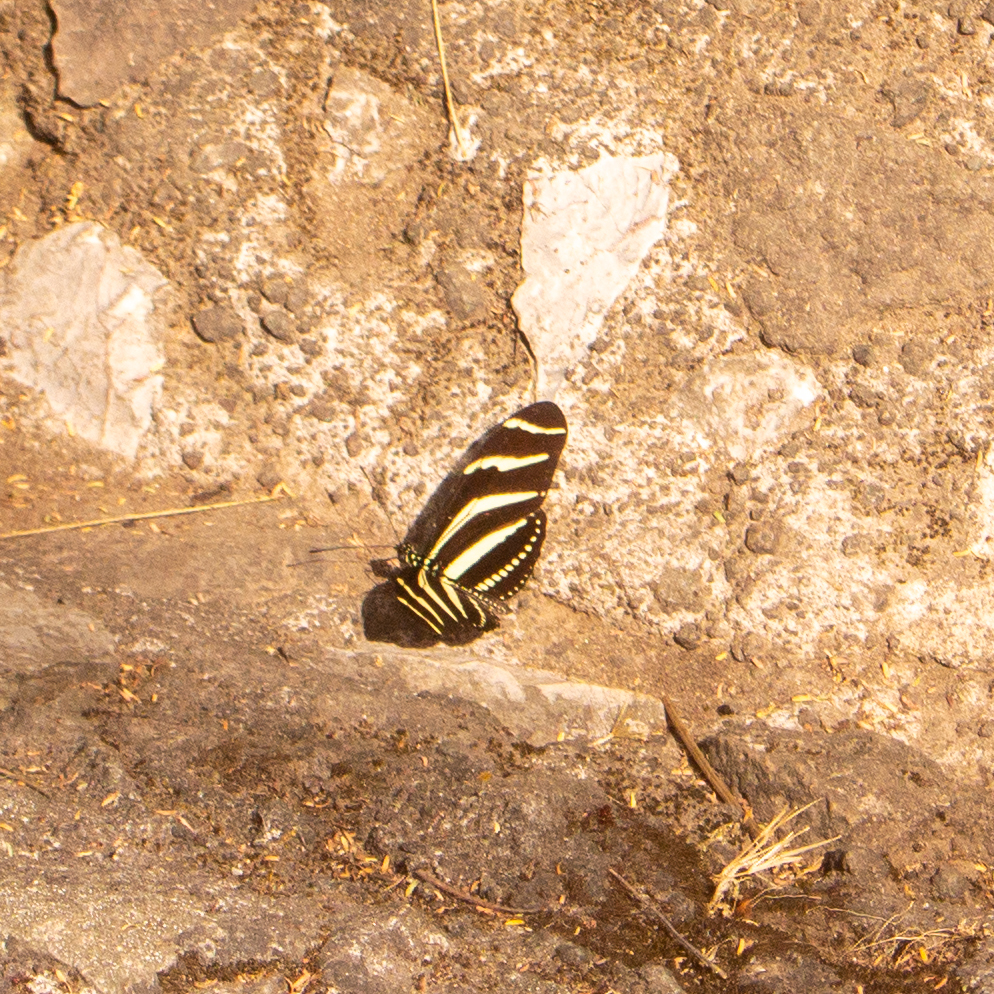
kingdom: Animalia
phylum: Arthropoda
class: Insecta
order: Lepidoptera
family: Nymphalidae
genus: Heliconius
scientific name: Heliconius charithonia
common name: Zebra long wing
